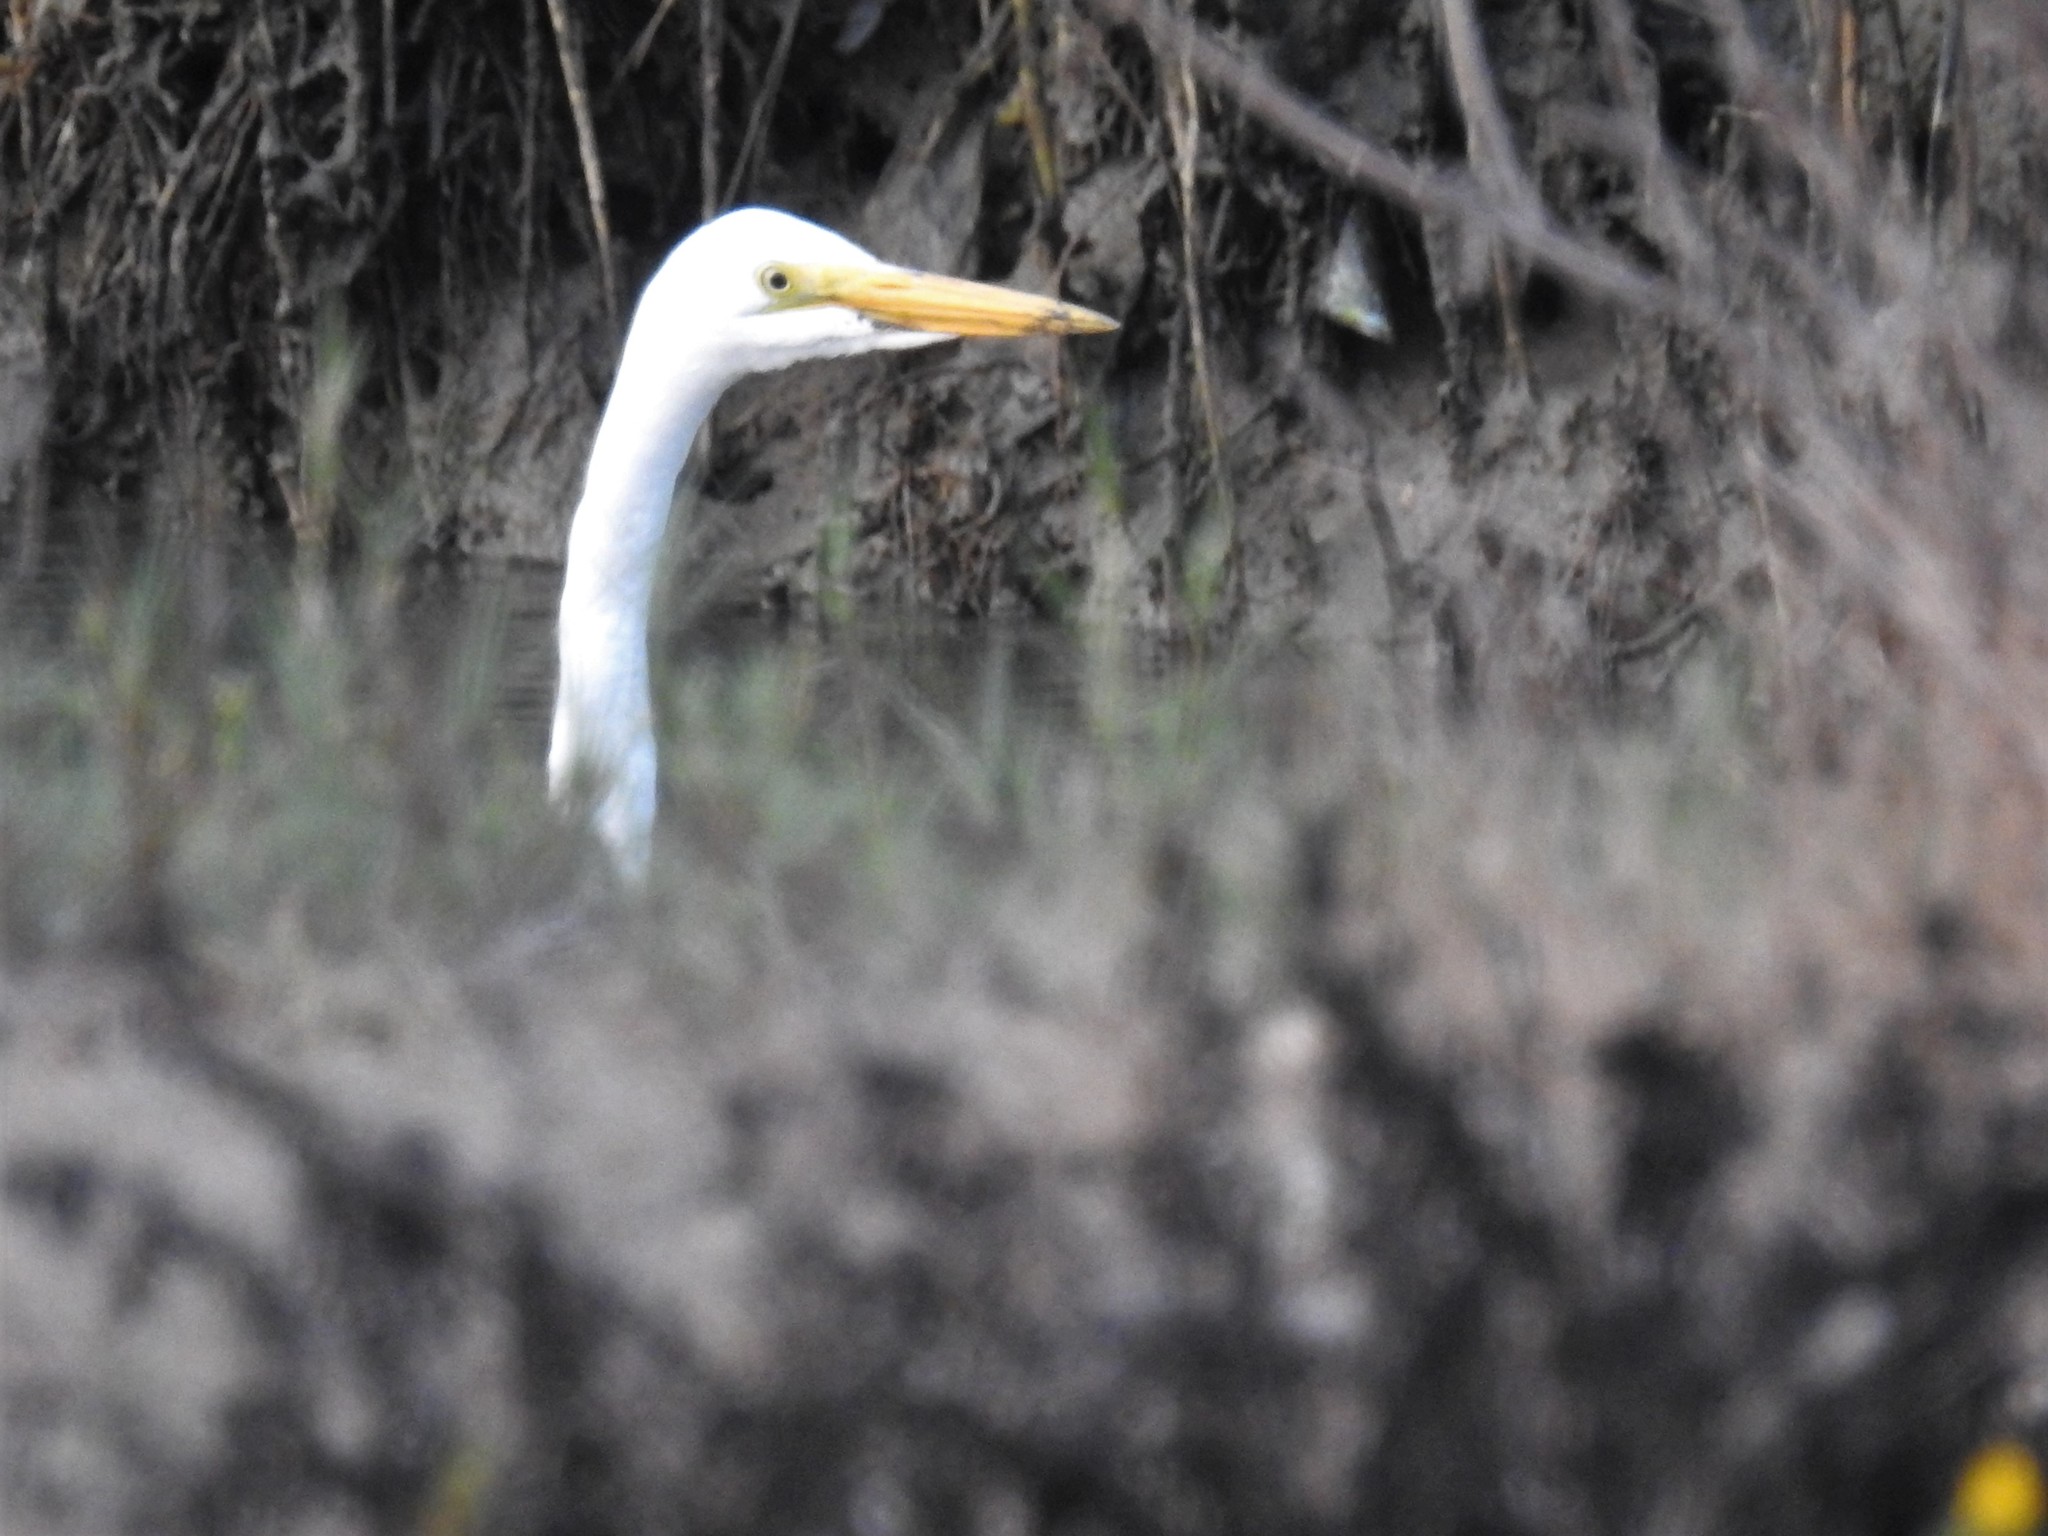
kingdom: Animalia
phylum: Chordata
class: Aves
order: Pelecaniformes
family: Ardeidae
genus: Ardea
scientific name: Ardea alba
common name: Great egret
